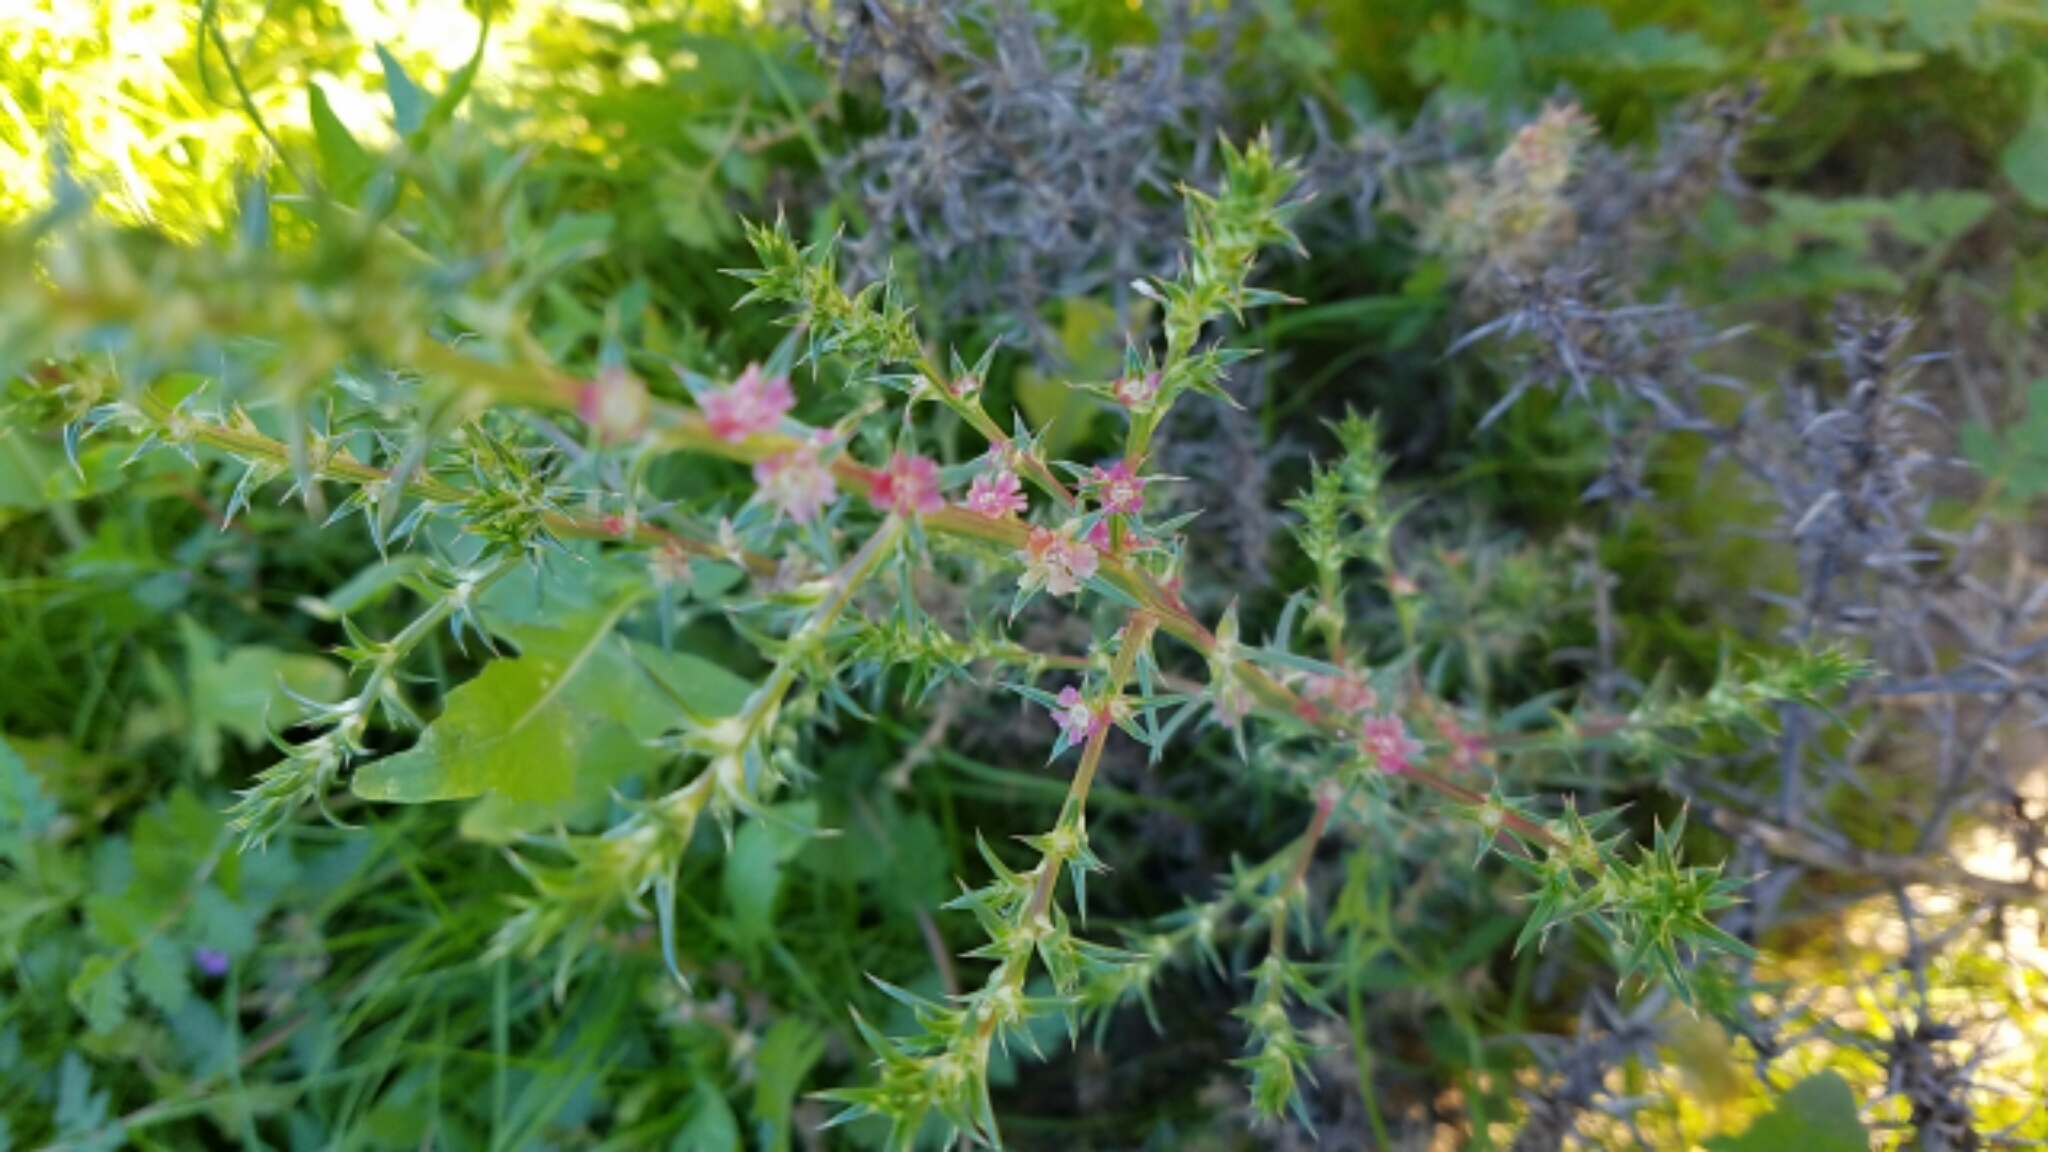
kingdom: Plantae
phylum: Tracheophyta
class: Magnoliopsida
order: Caryophyllales
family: Amaranthaceae
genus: Salsola
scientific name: Salsola
